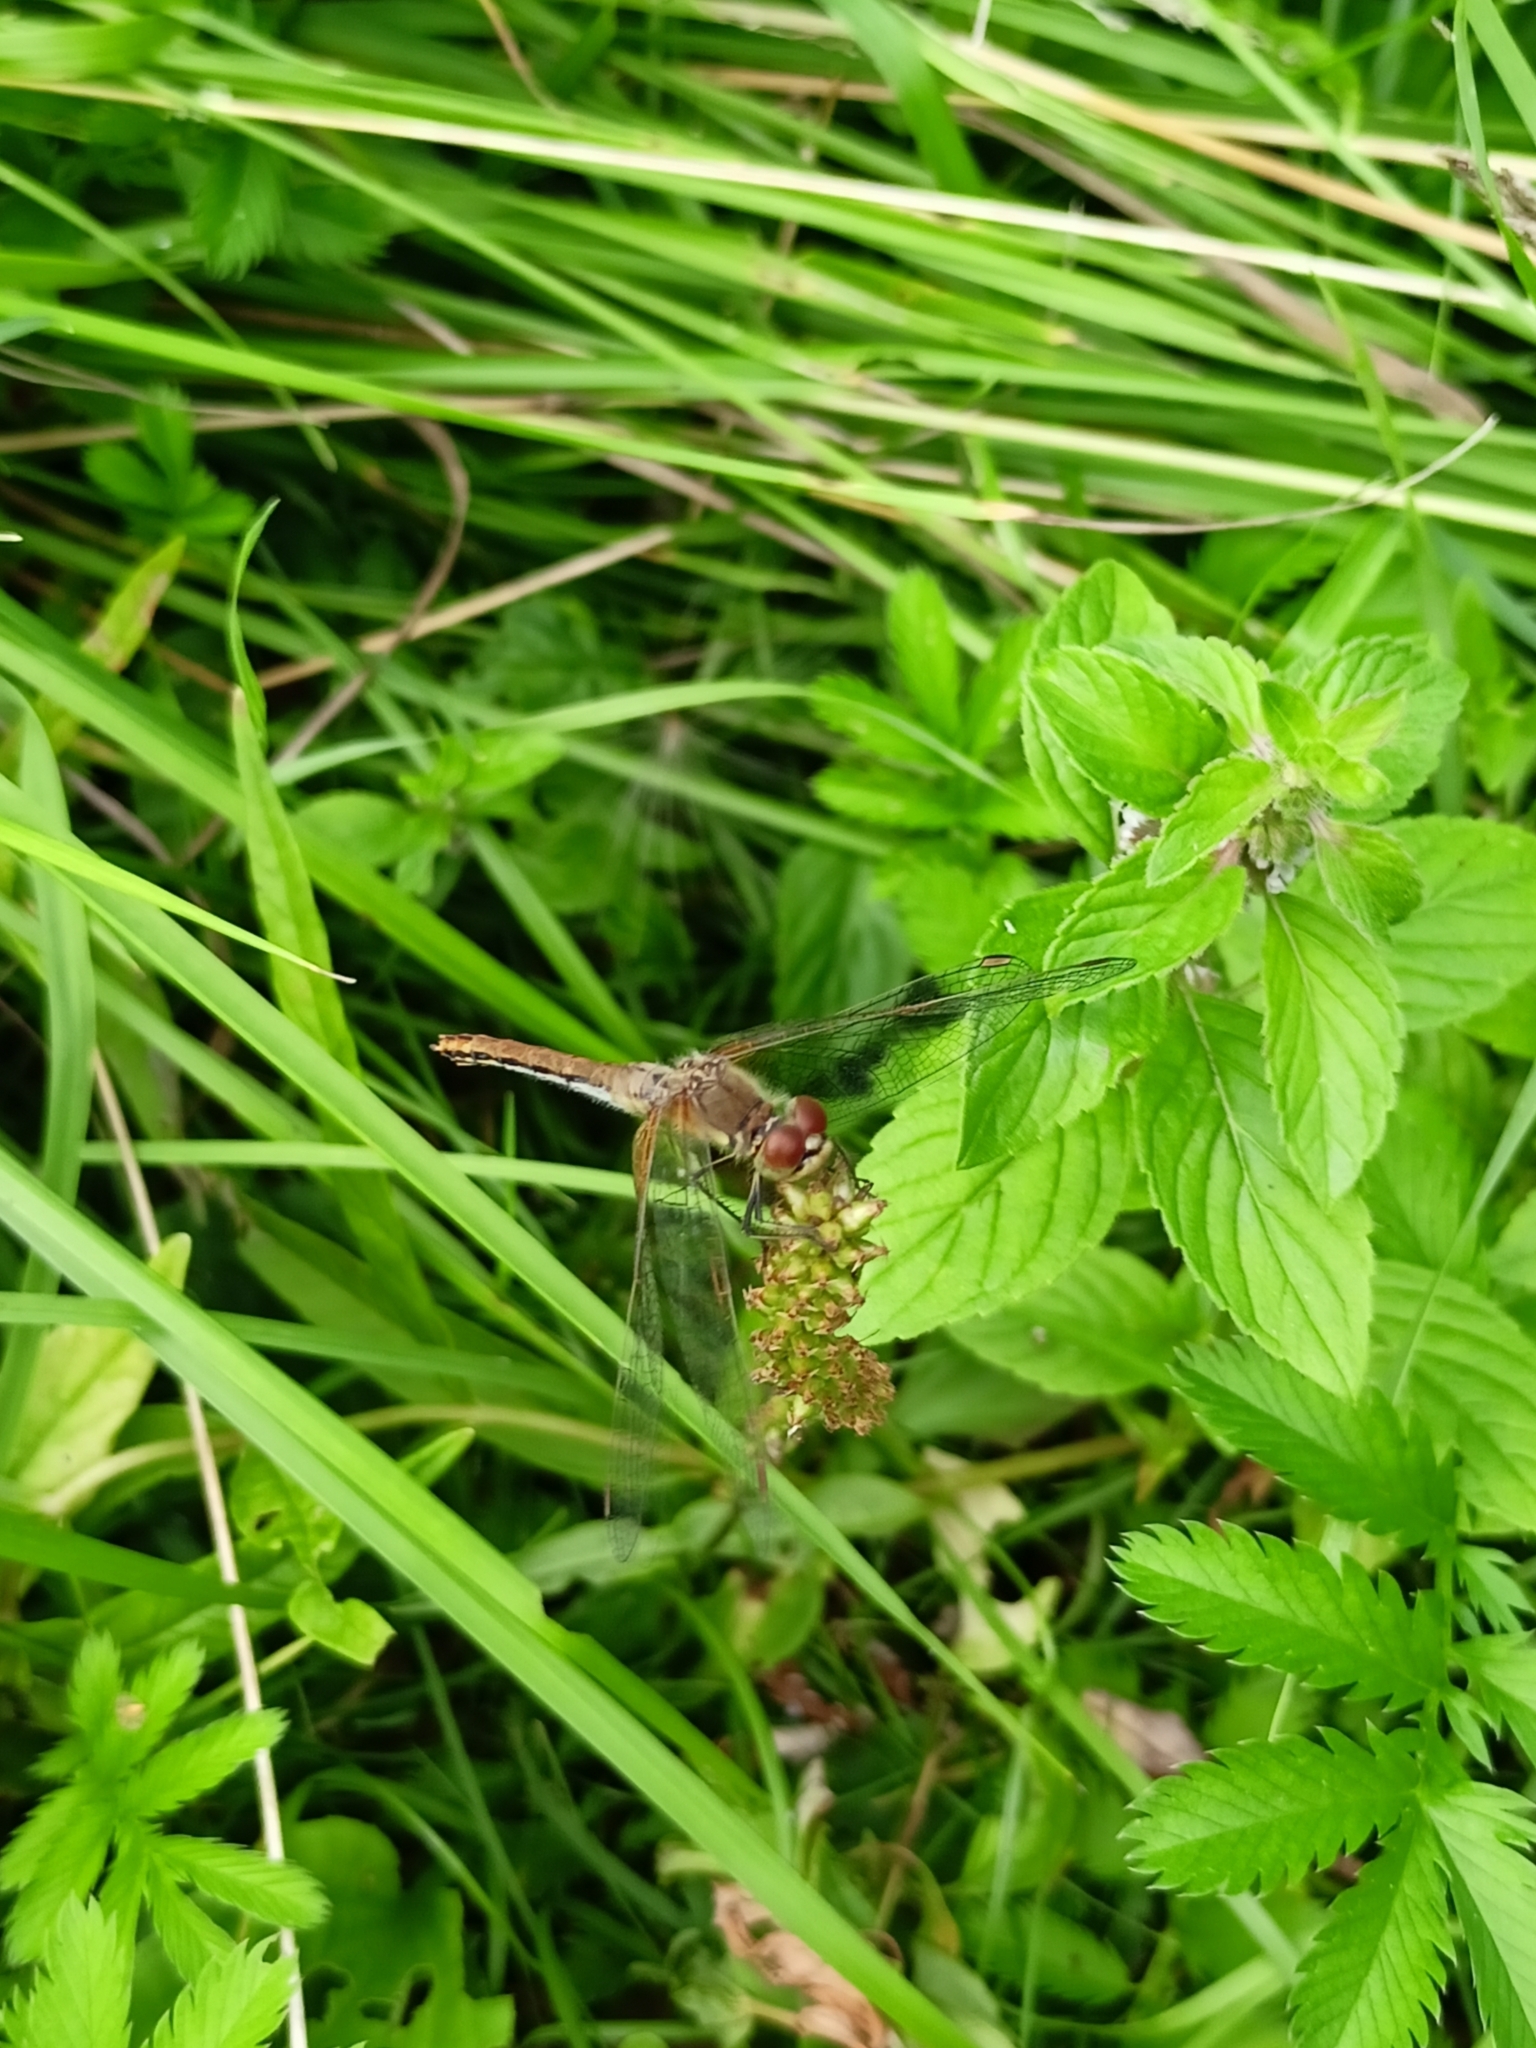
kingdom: Animalia
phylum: Arthropoda
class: Insecta
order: Odonata
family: Libellulidae
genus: Sympetrum
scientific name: Sympetrum flaveolum
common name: Yellow-winged darter
